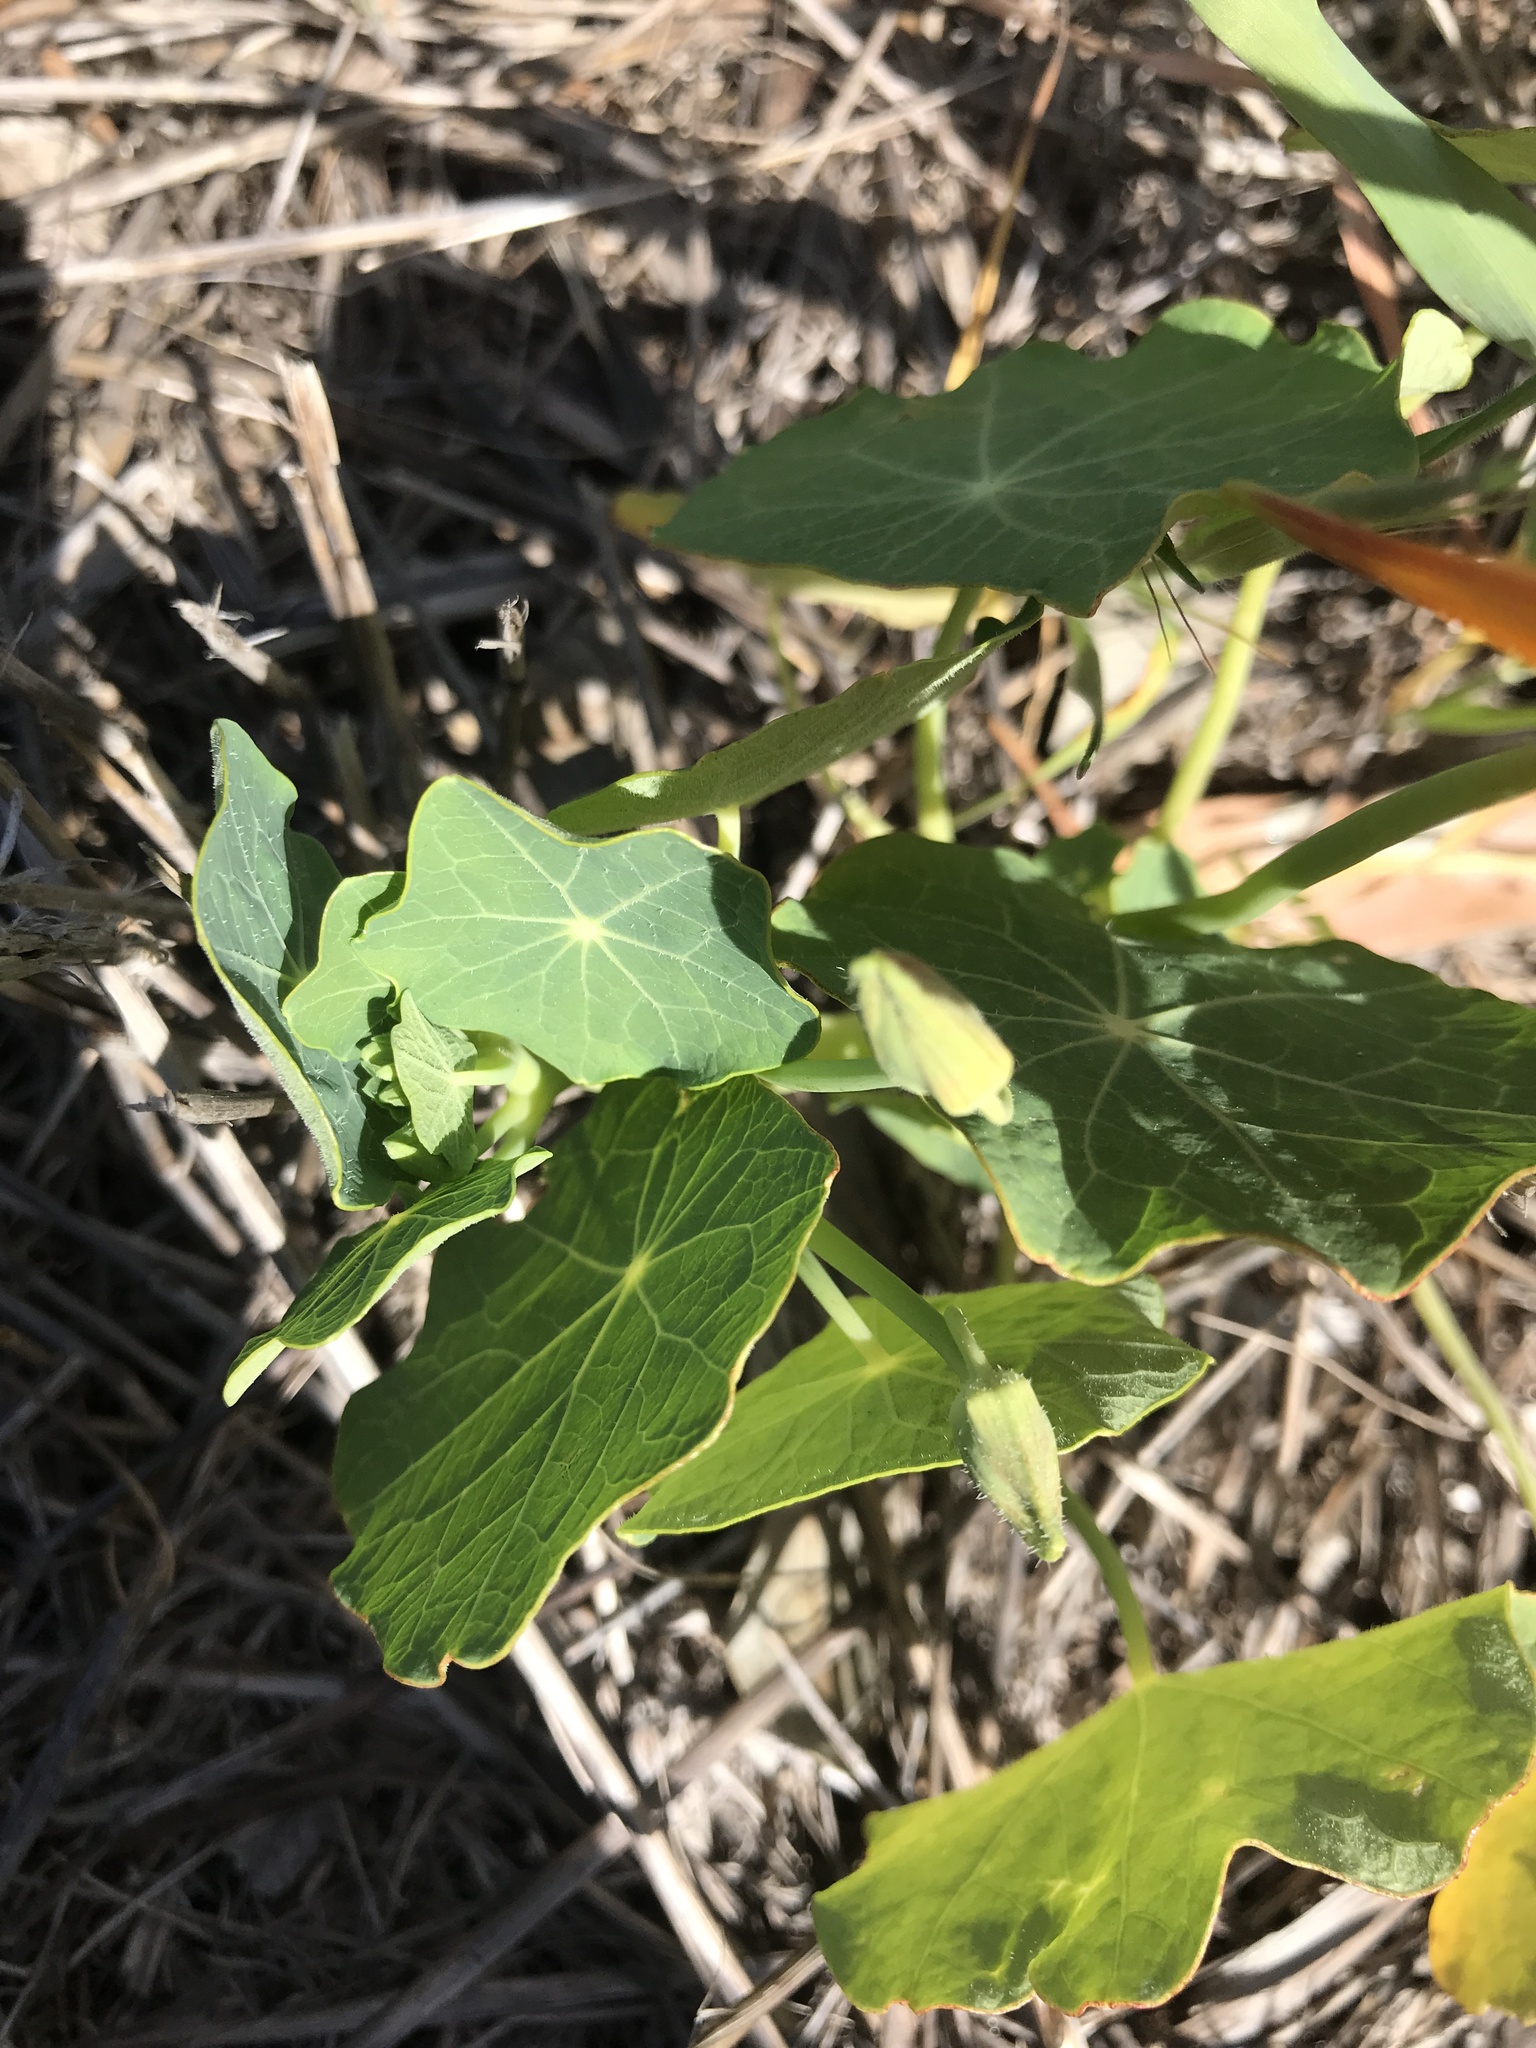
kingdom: Plantae
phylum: Tracheophyta
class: Magnoliopsida
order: Brassicales
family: Tropaeolaceae
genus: Tropaeolum
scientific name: Tropaeolum majus
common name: Nasturtium
